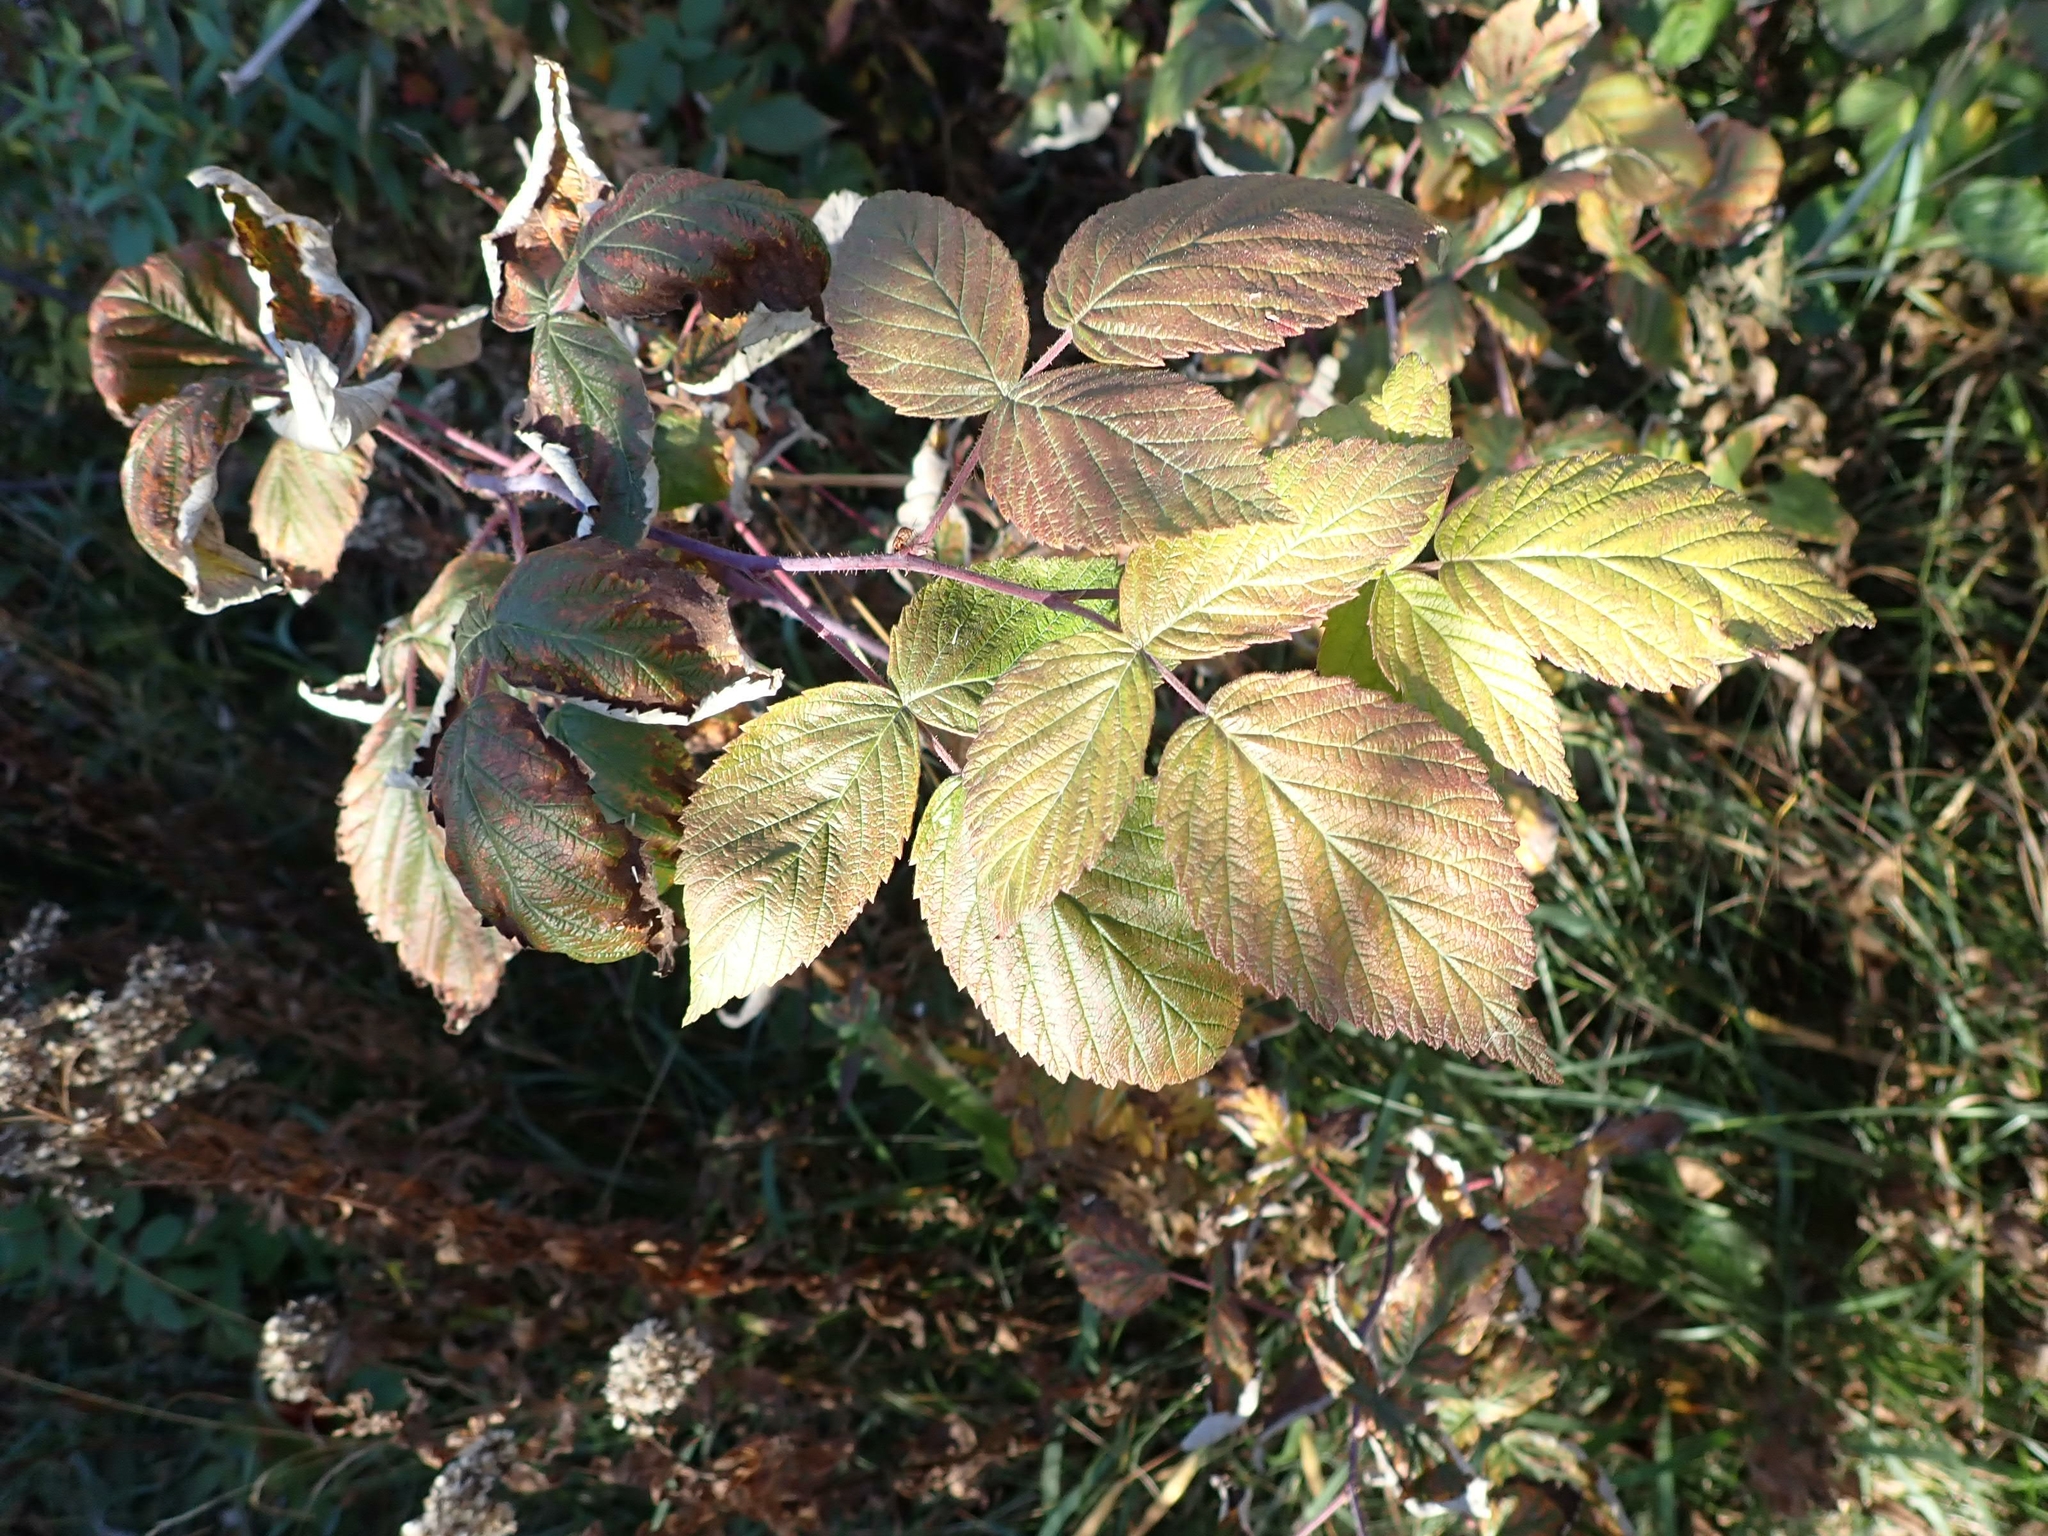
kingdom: Plantae
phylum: Tracheophyta
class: Magnoliopsida
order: Rosales
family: Rosaceae
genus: Rubus
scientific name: Rubus idaeus
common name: Raspberry
